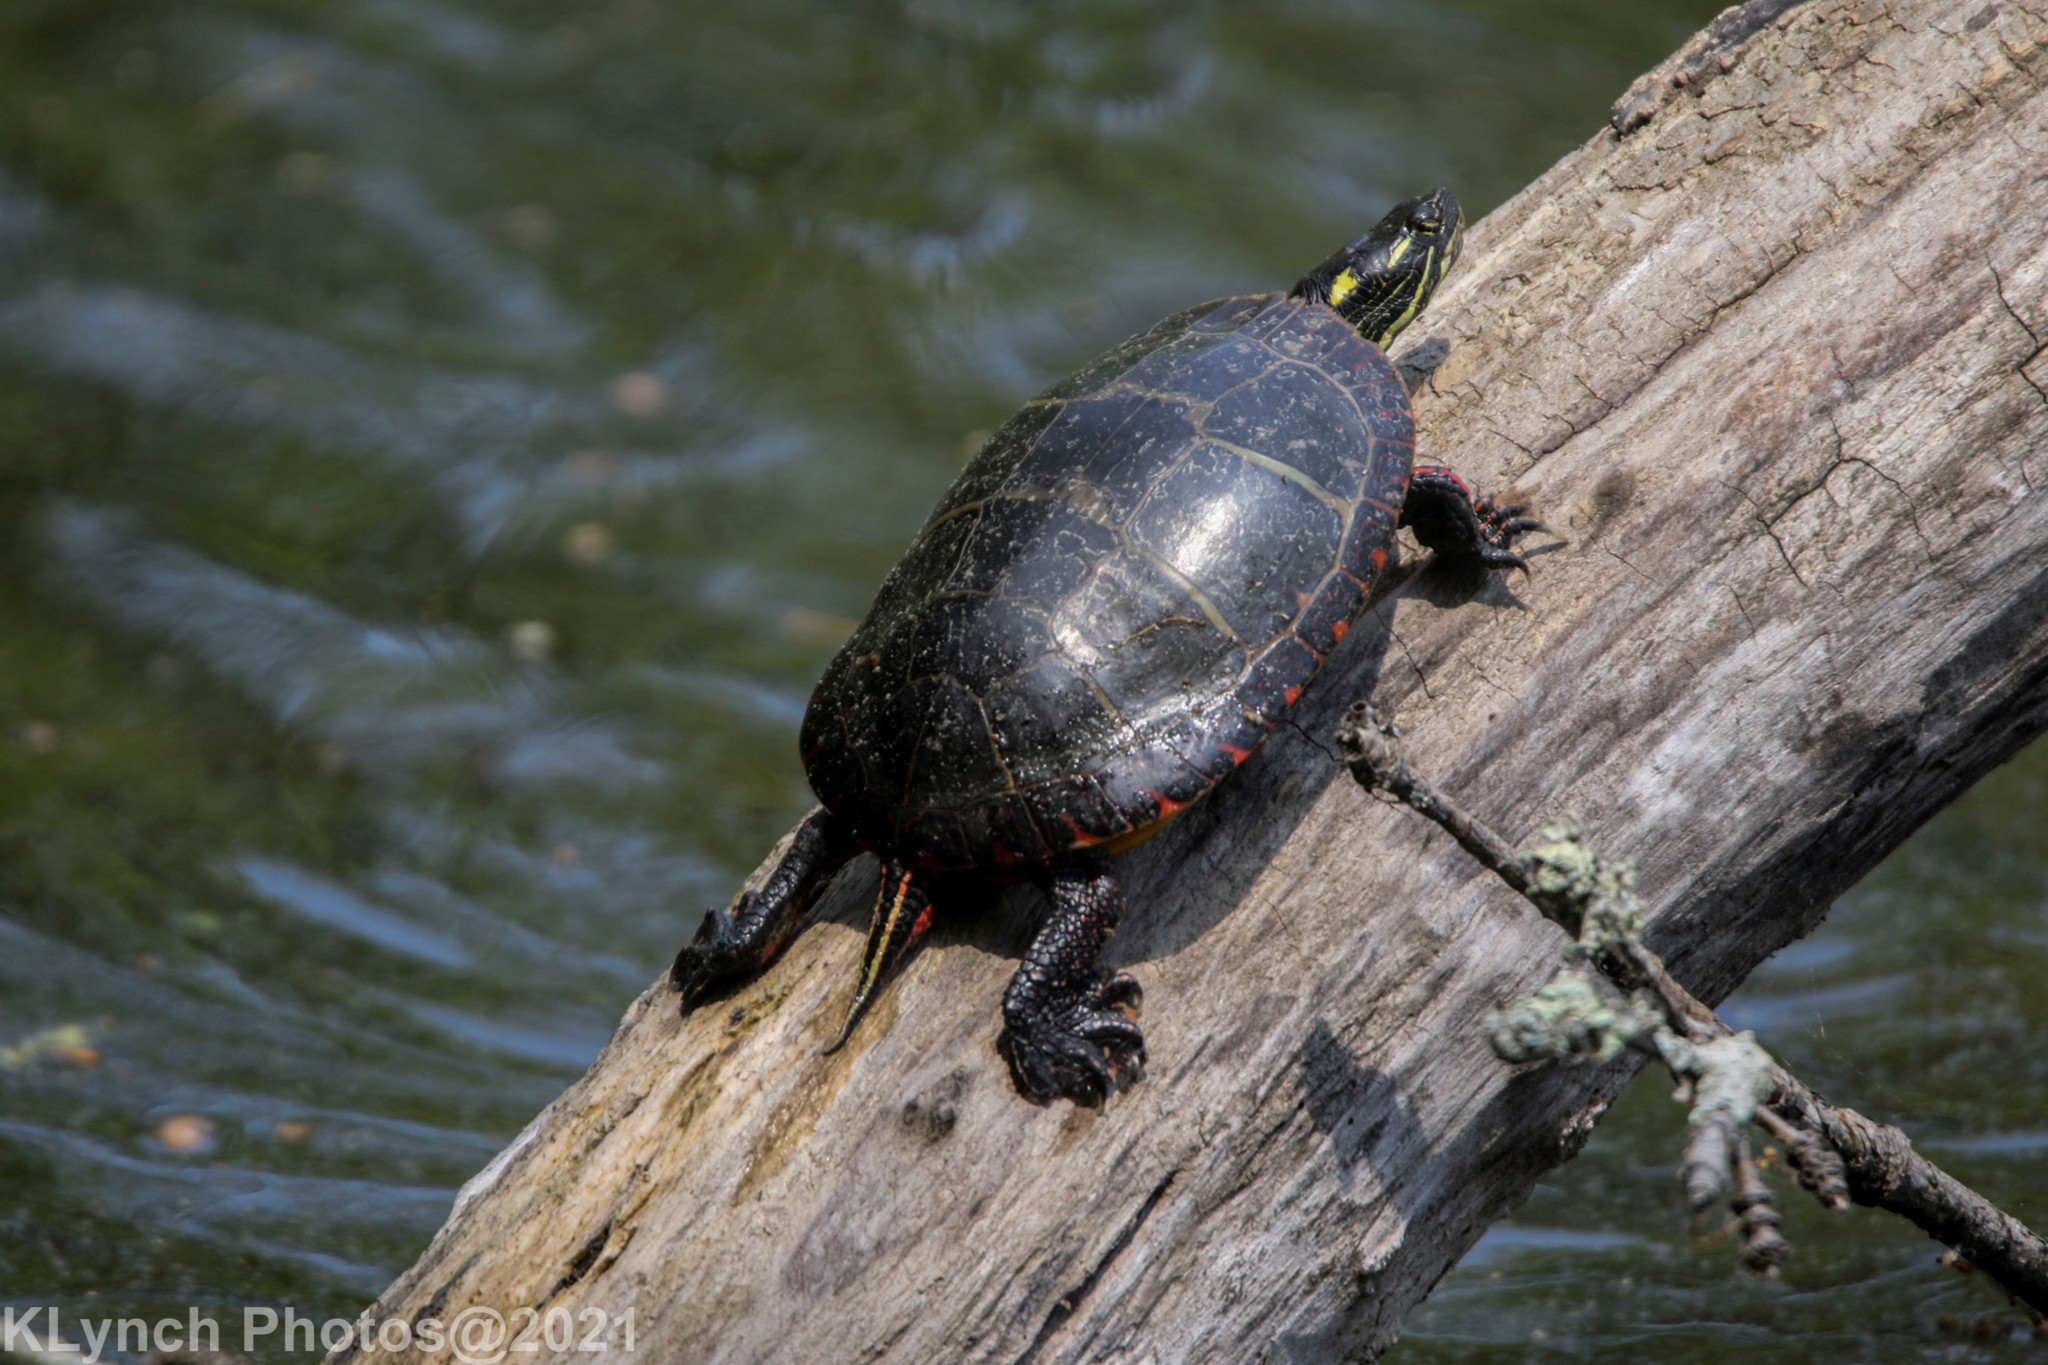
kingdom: Animalia
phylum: Chordata
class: Testudines
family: Emydidae
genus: Chrysemys
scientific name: Chrysemys picta
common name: Painted turtle
